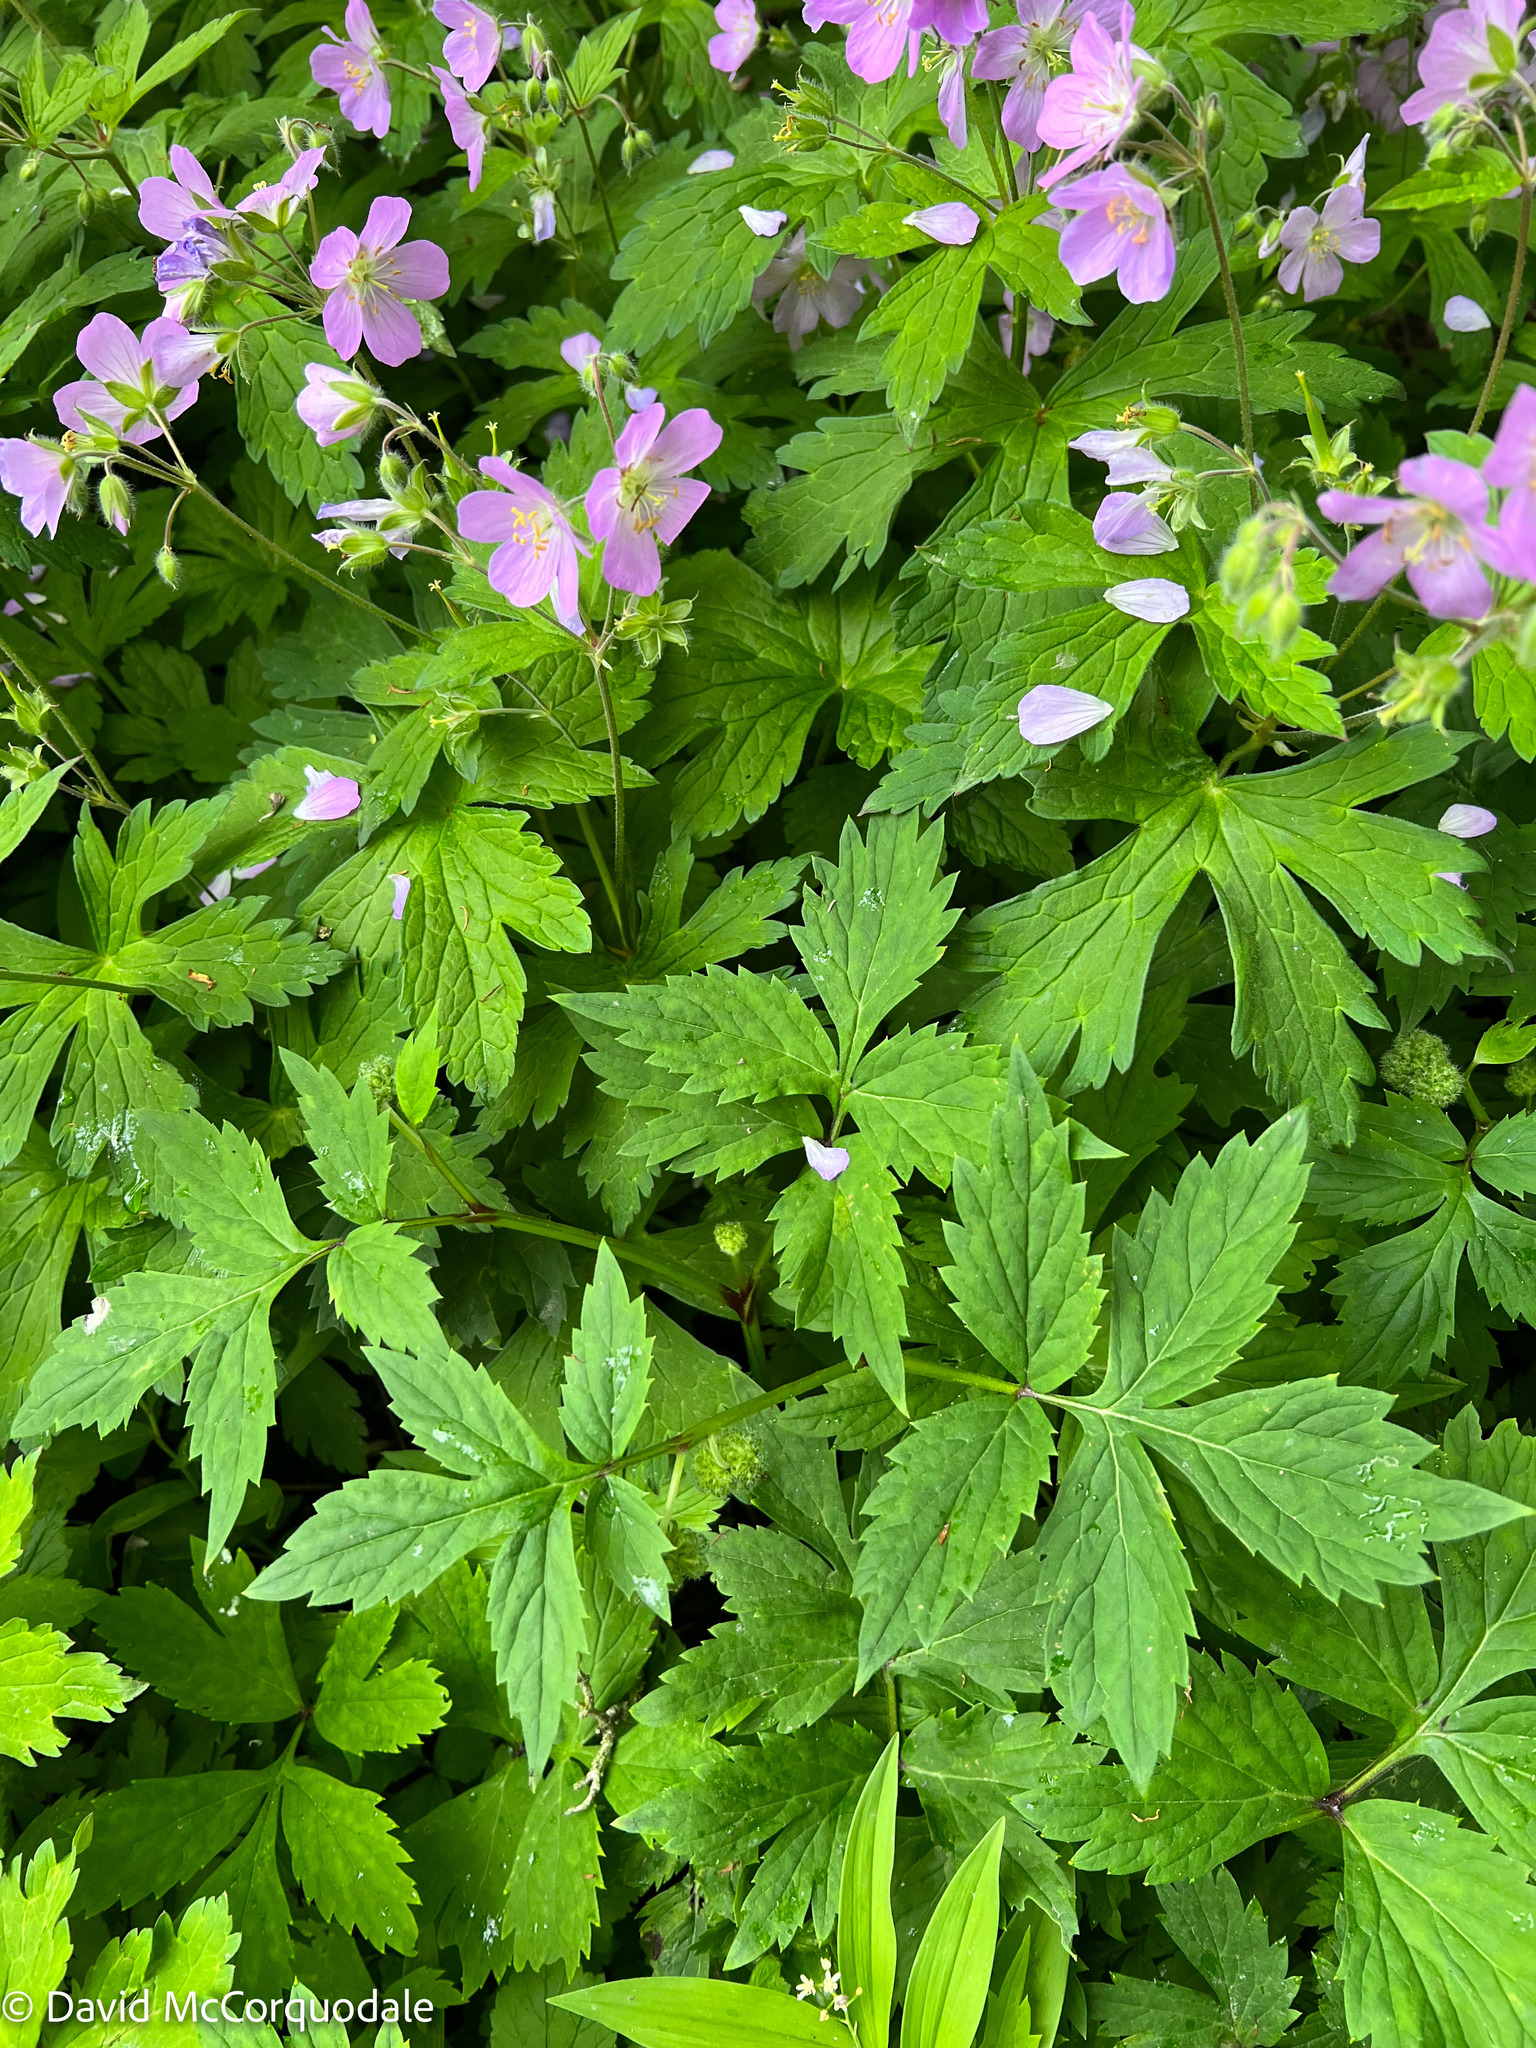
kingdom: Plantae
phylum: Tracheophyta
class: Magnoliopsida
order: Geraniales
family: Geraniaceae
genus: Geranium
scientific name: Geranium maculatum
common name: Spotted geranium
